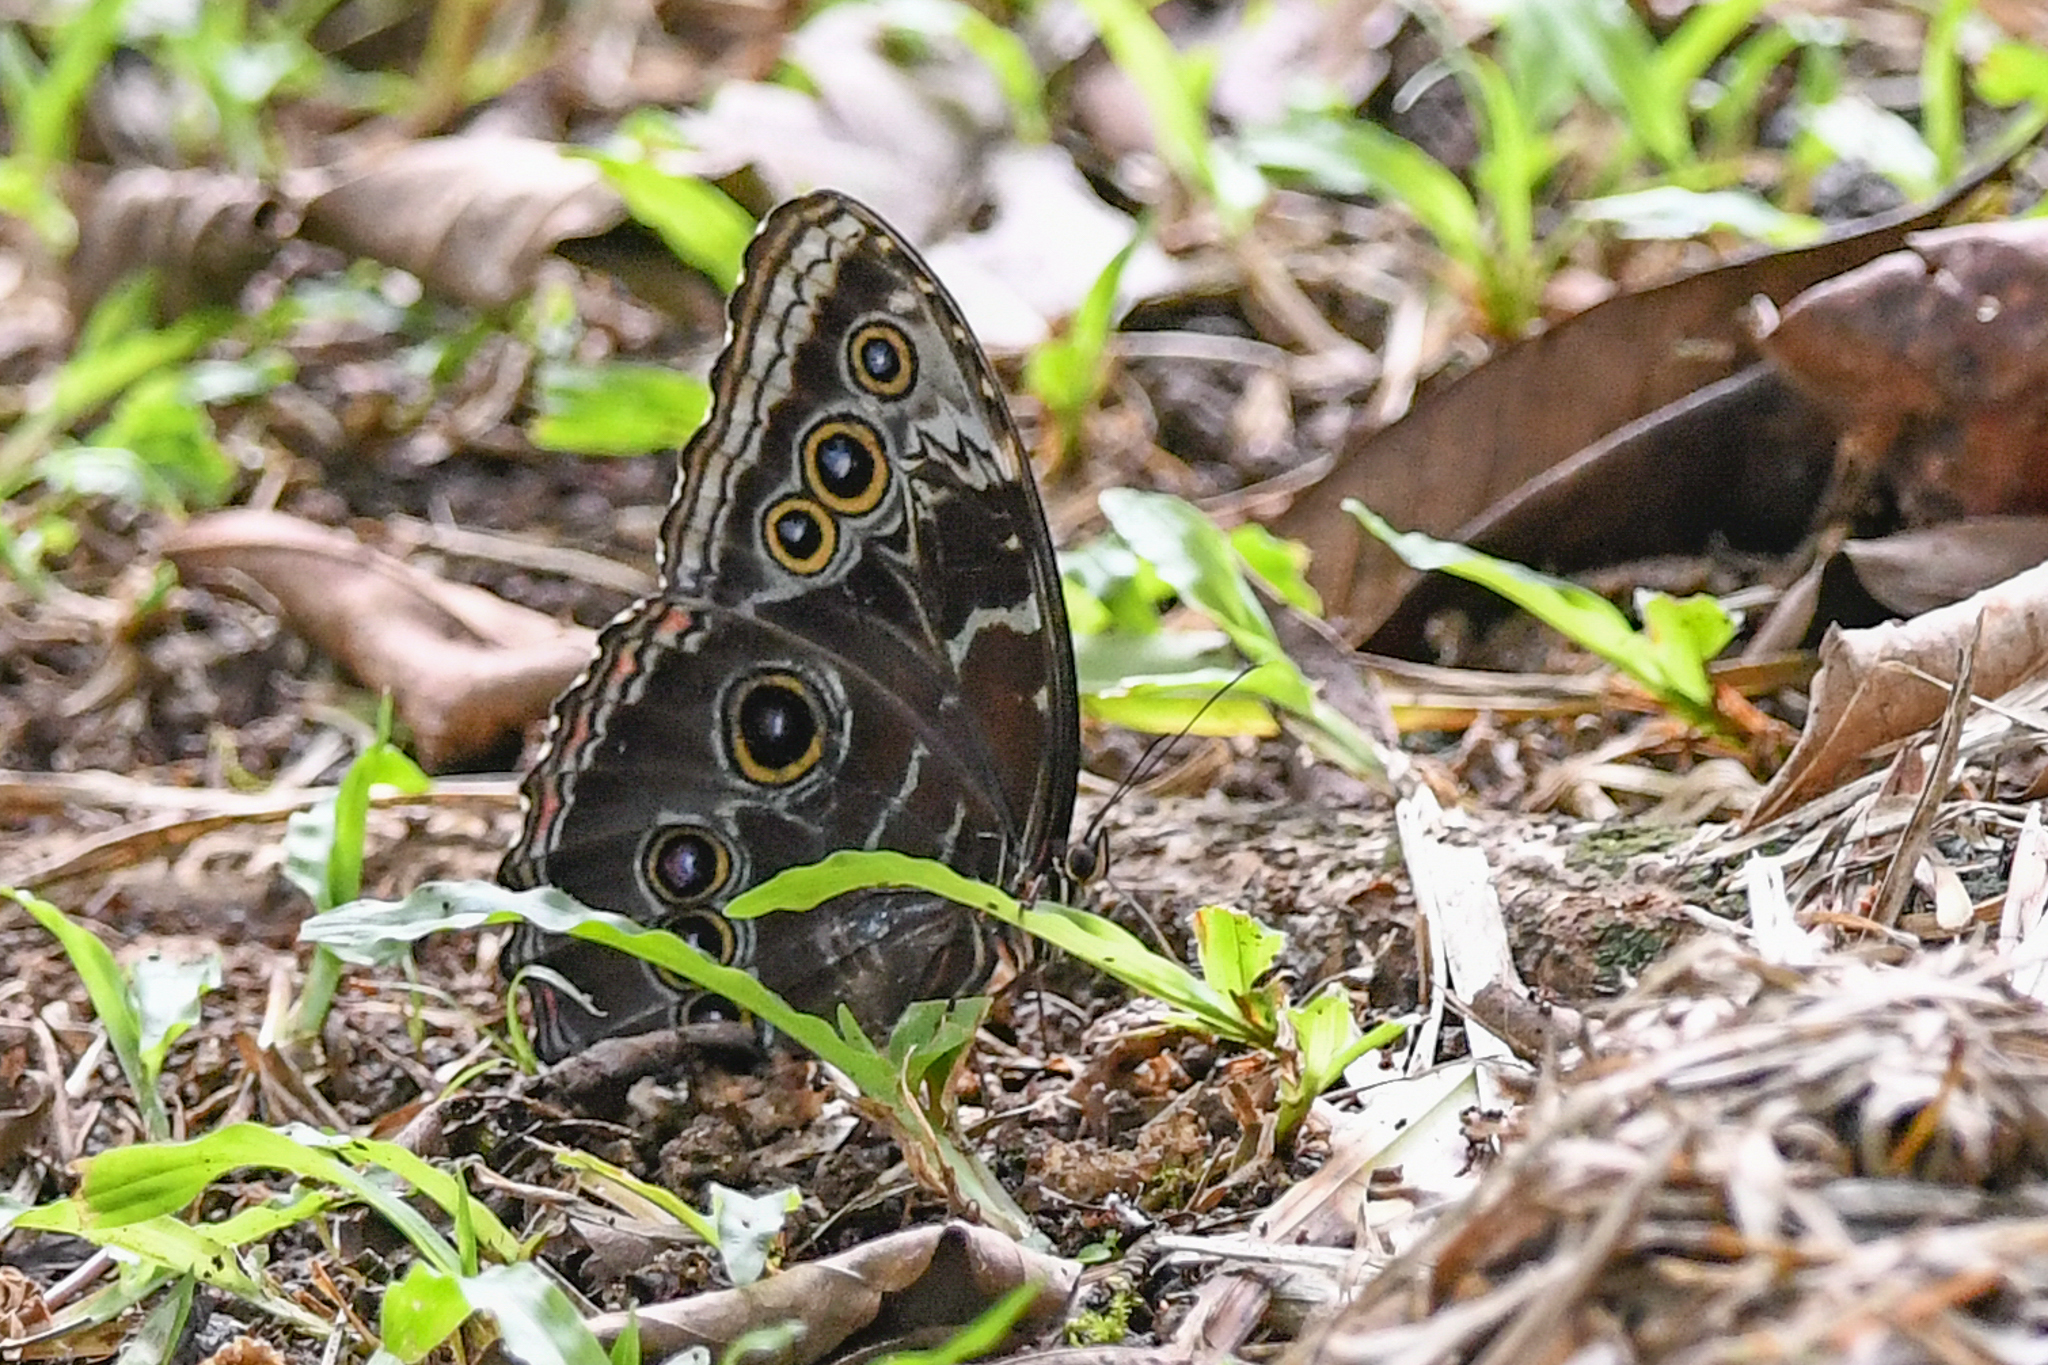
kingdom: Animalia
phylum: Arthropoda
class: Insecta
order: Lepidoptera
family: Nymphalidae
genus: Morpho
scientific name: Morpho helenor
